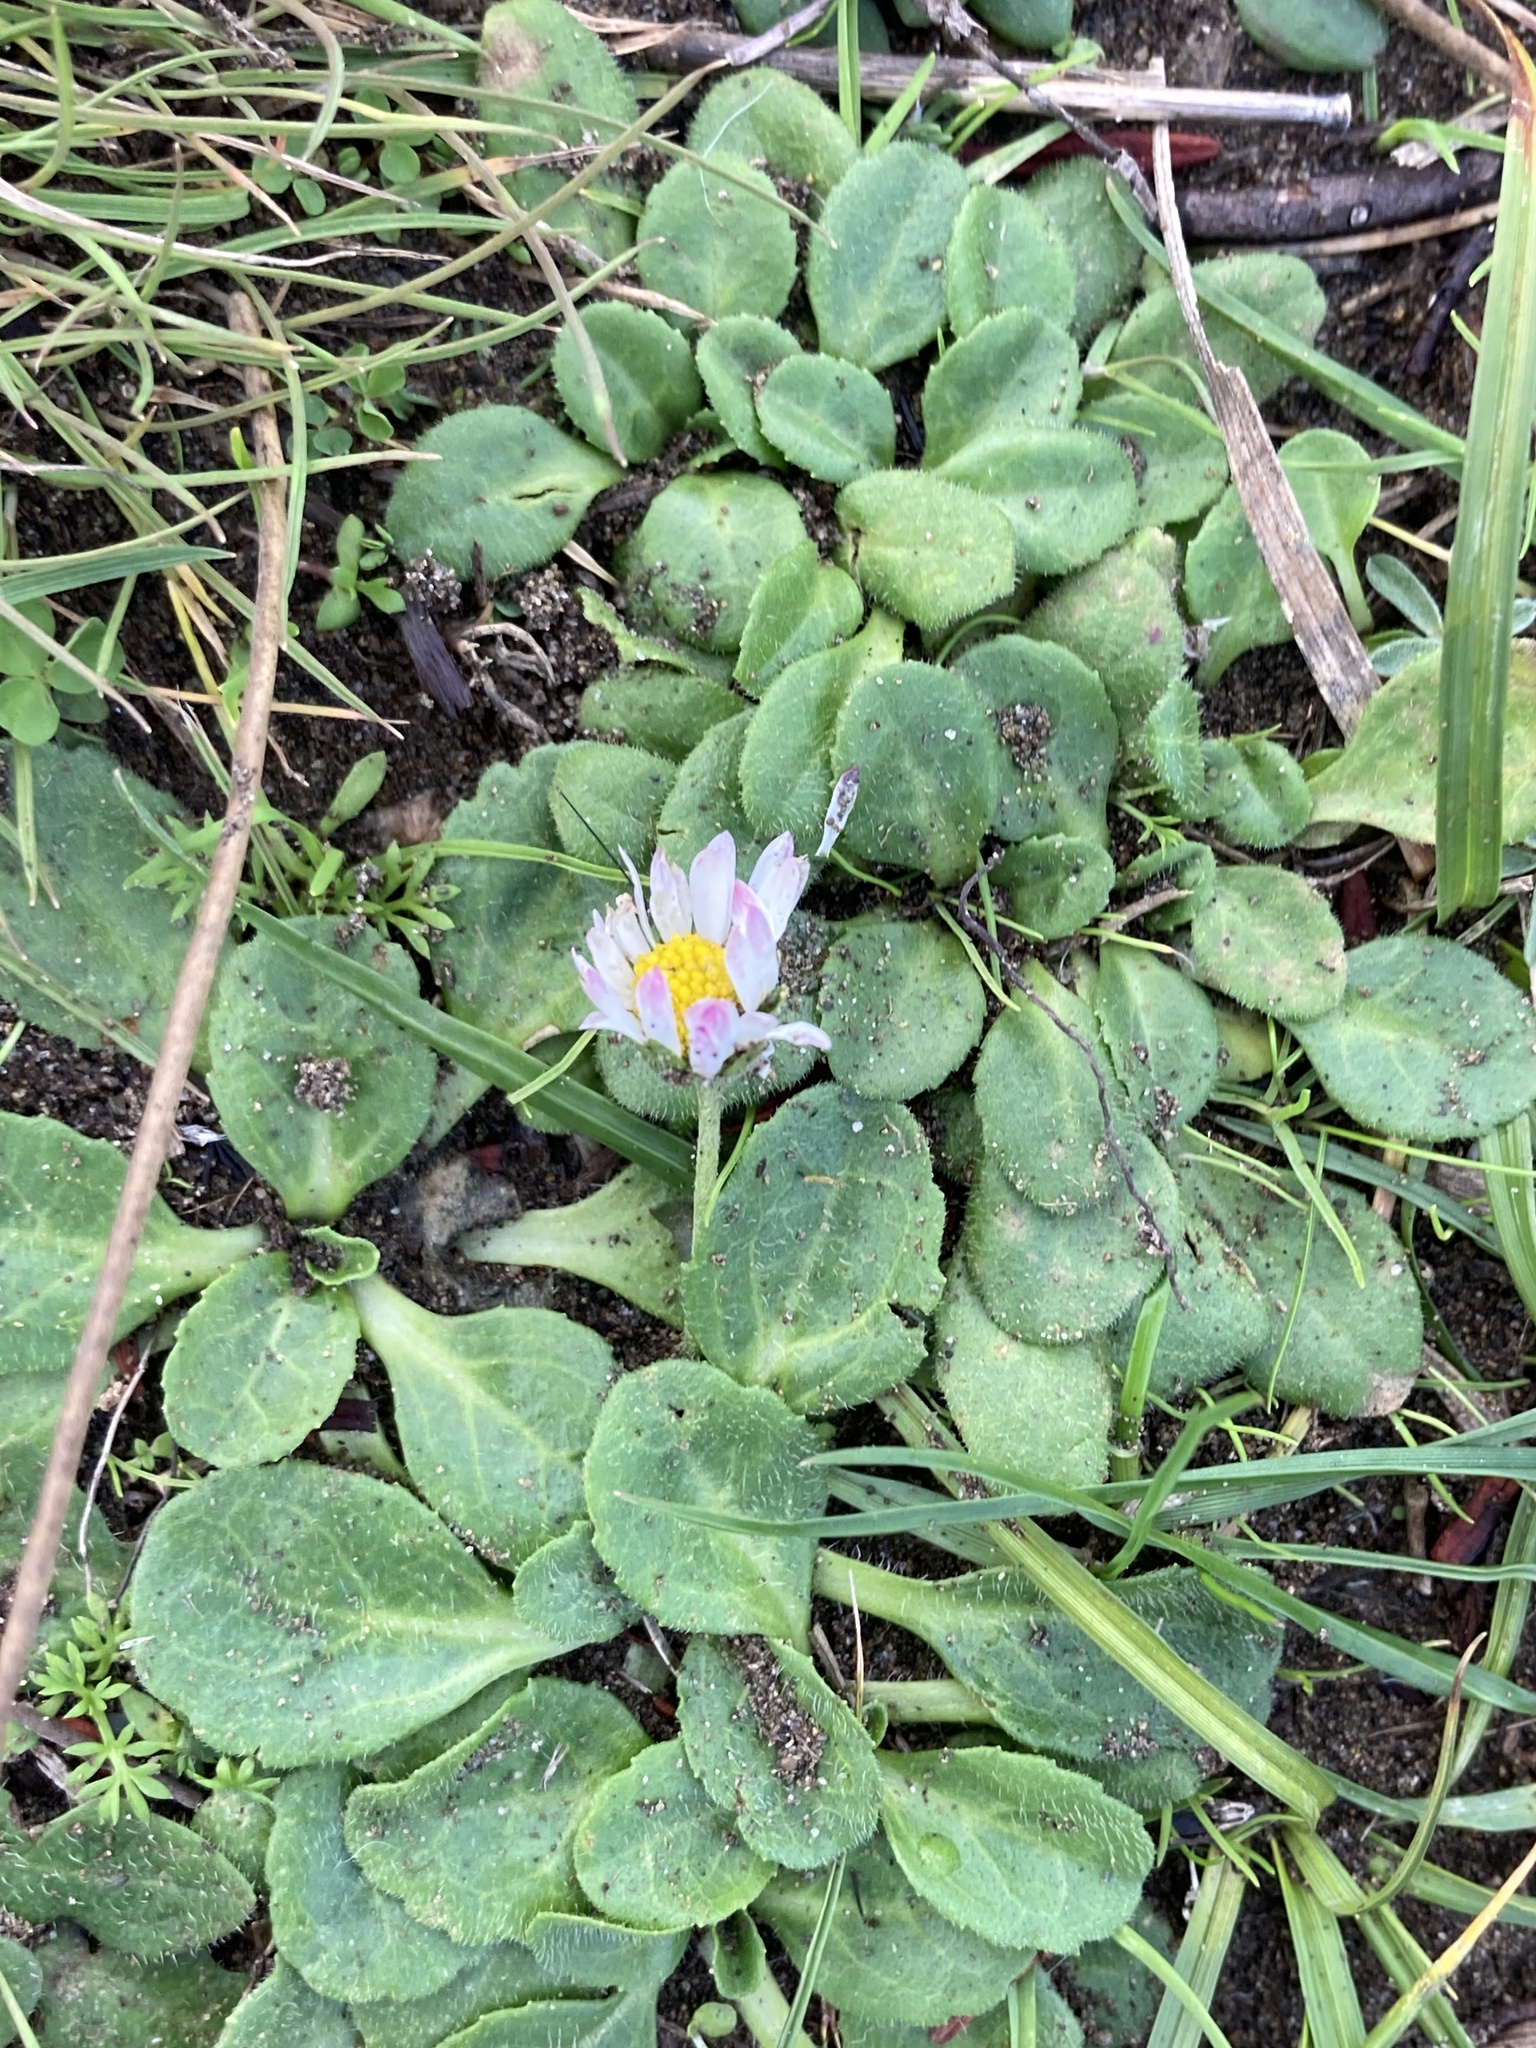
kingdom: Plantae
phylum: Tracheophyta
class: Magnoliopsida
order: Asterales
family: Asteraceae
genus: Bellis
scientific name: Bellis perennis
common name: Lawndaisy
